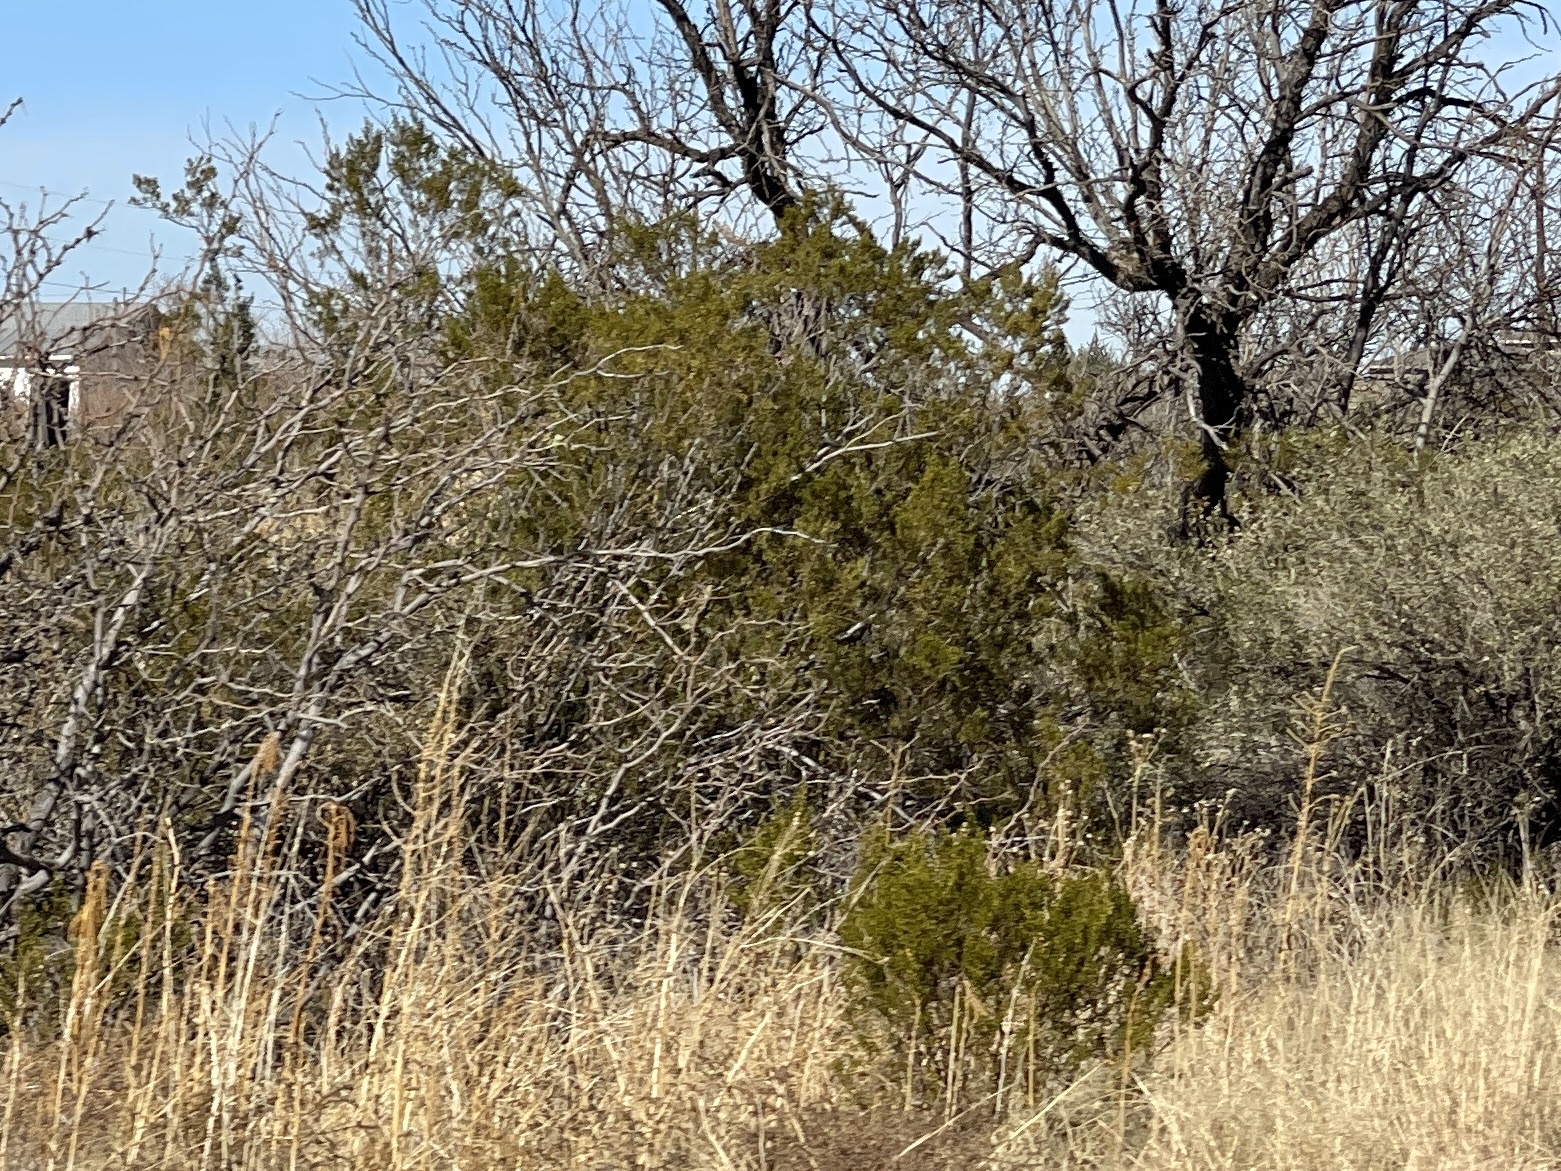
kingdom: Plantae
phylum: Tracheophyta
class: Magnoliopsida
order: Zygophyllales
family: Zygophyllaceae
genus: Larrea
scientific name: Larrea tridentata
